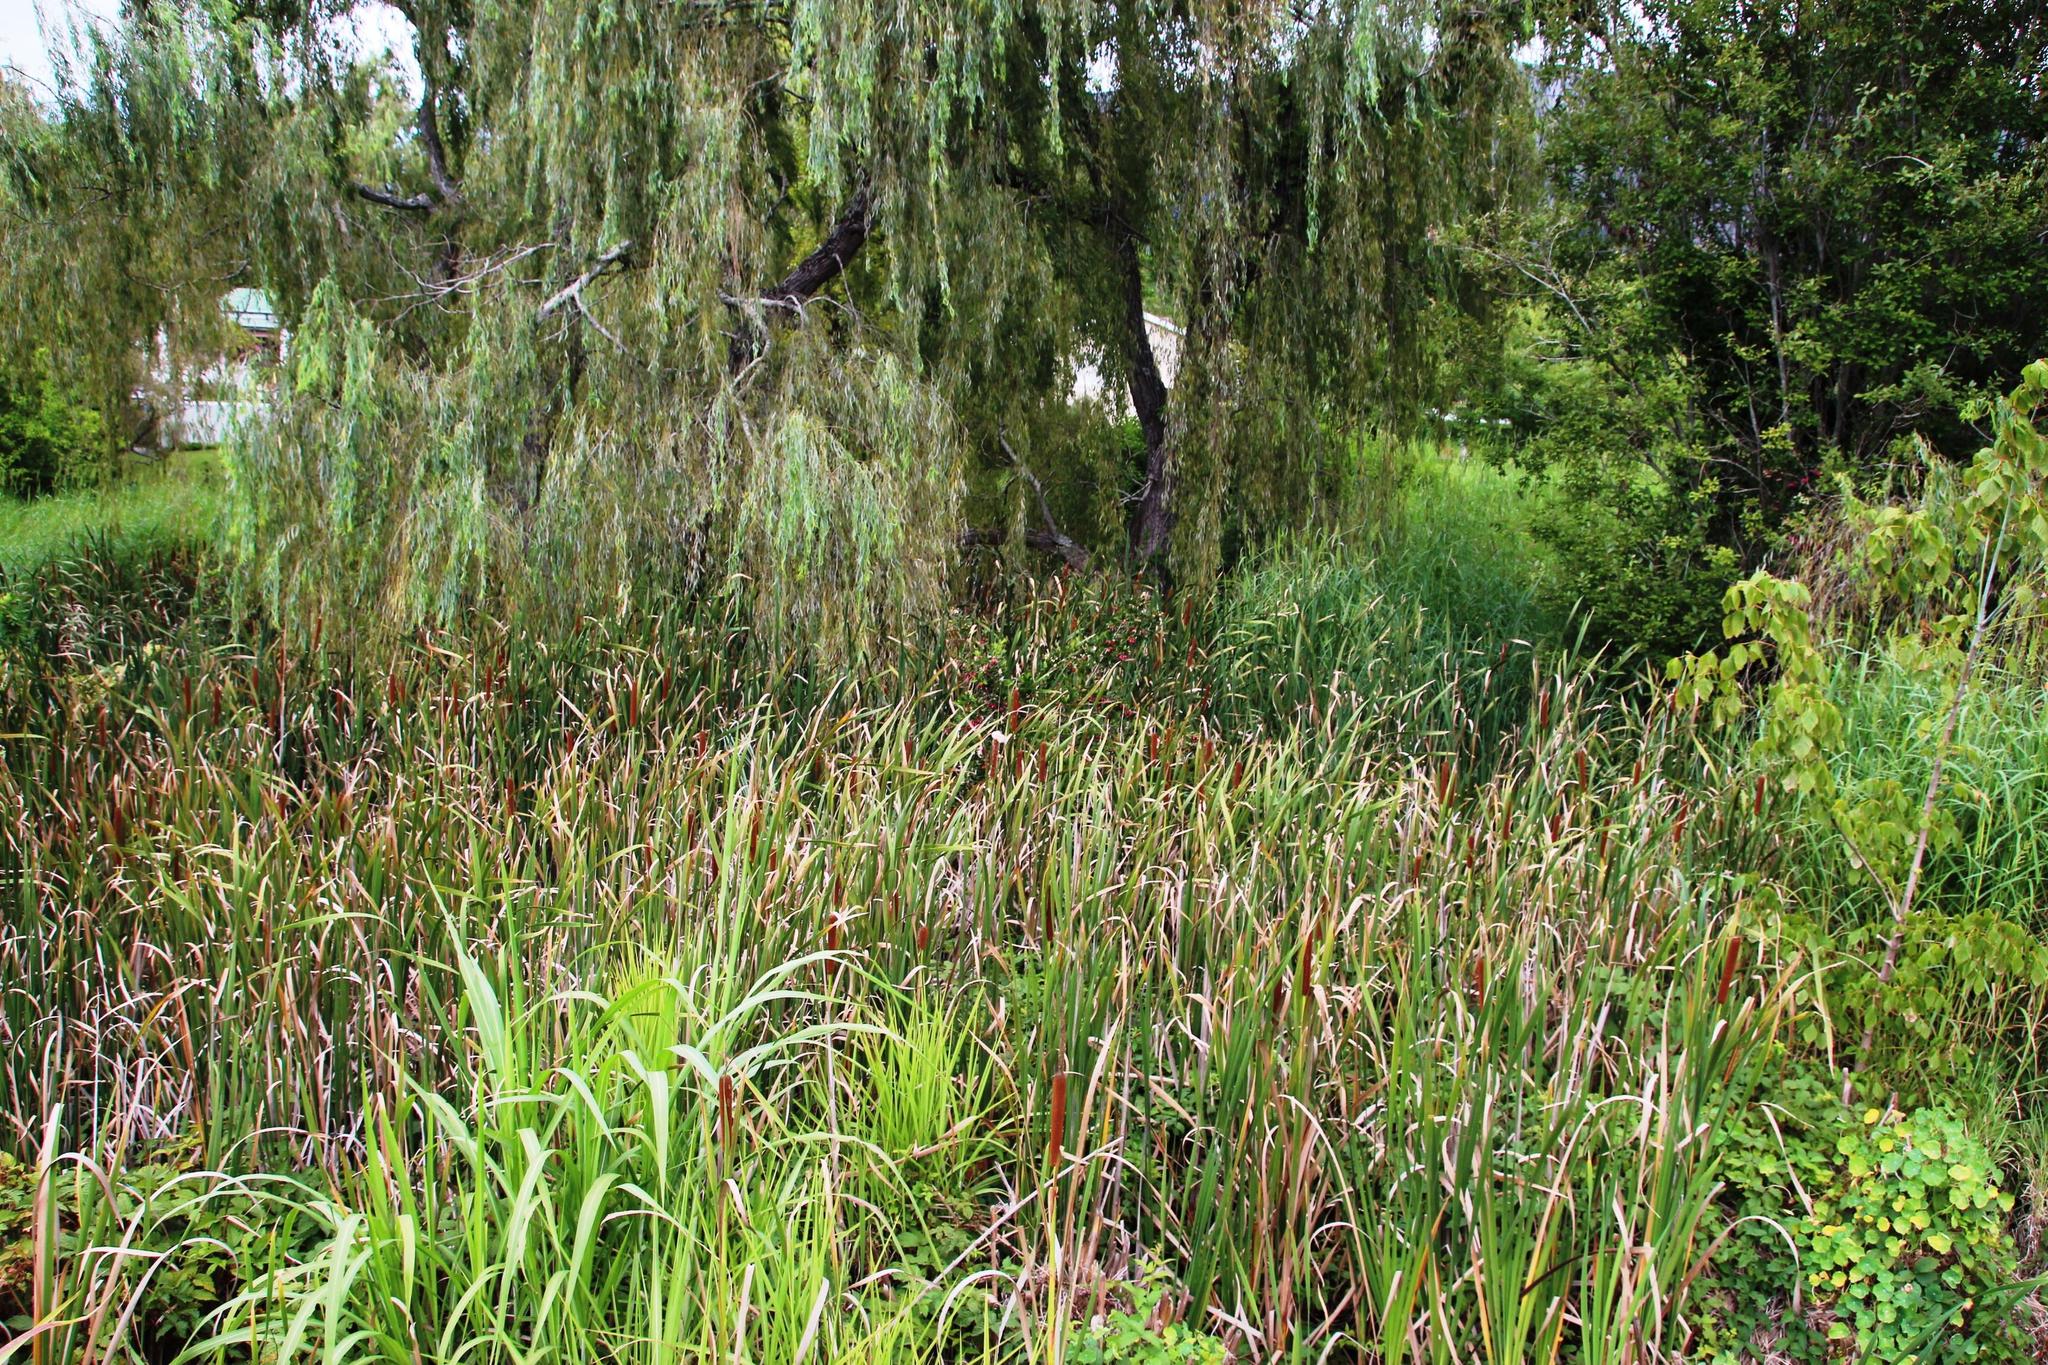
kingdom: Plantae
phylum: Tracheophyta
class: Liliopsida
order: Poales
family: Typhaceae
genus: Typha
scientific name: Typha capensis
